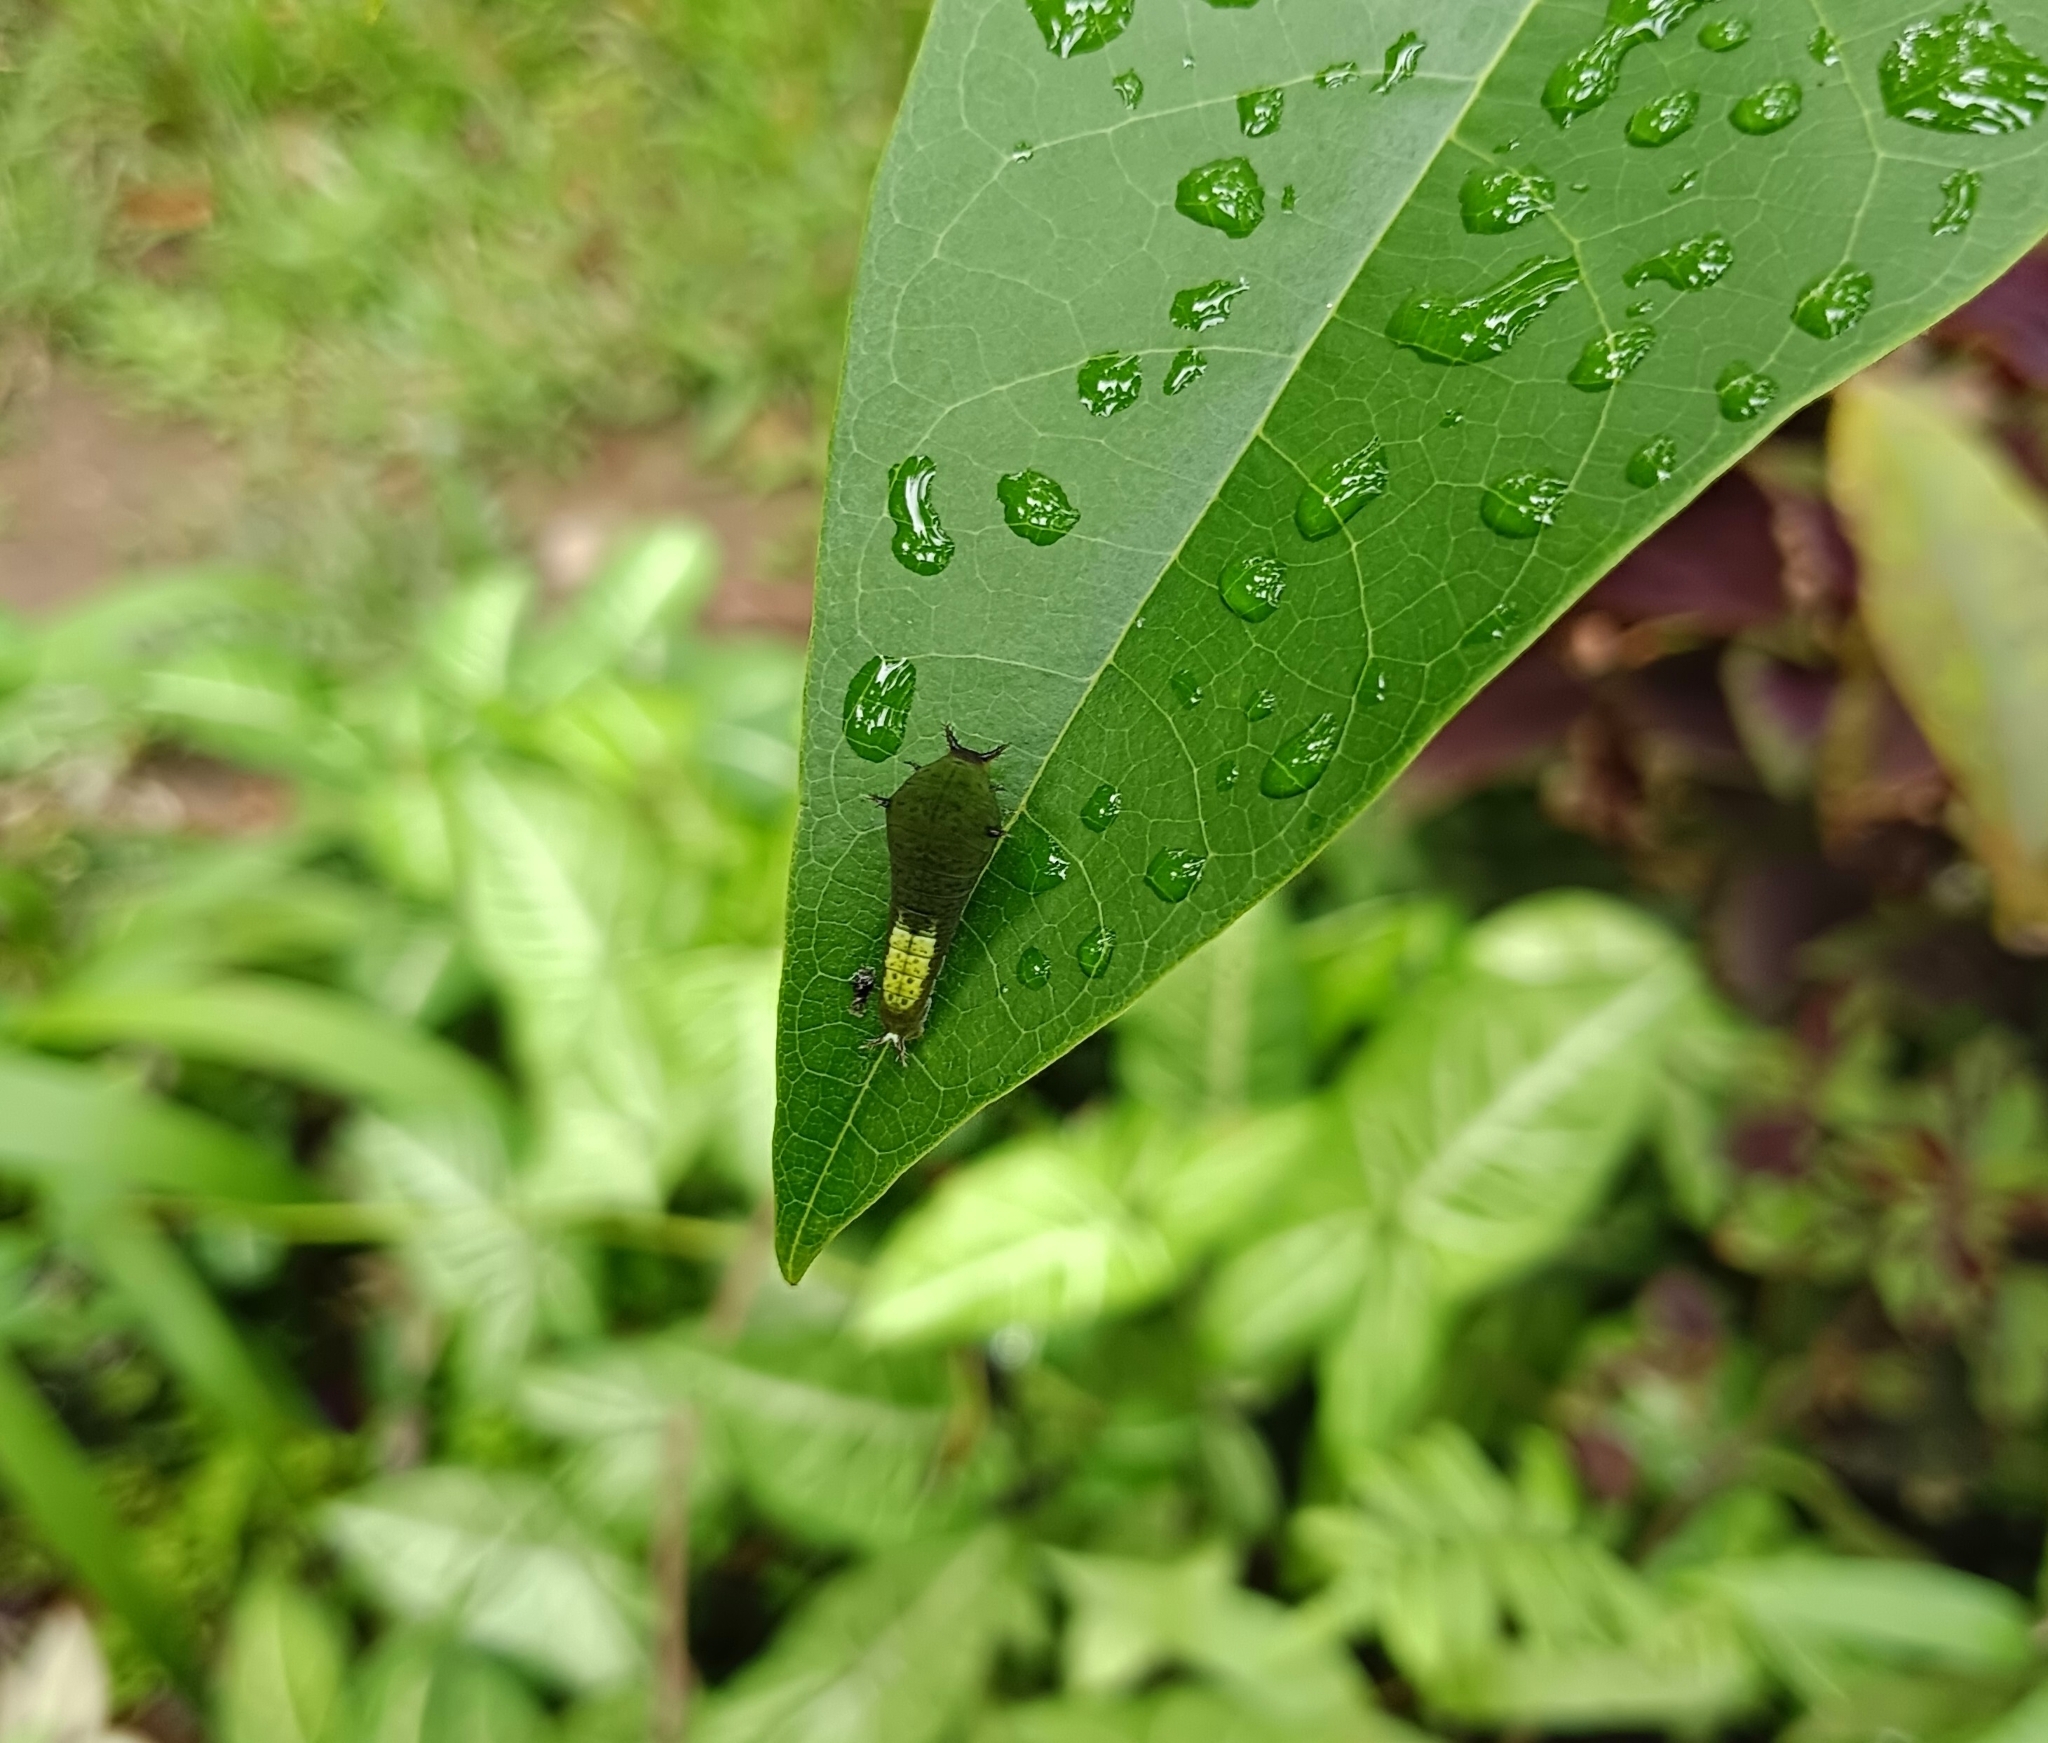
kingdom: Animalia
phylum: Arthropoda
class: Insecta
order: Lepidoptera
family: Papilionidae
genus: Graphium
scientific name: Graphium agamemnon
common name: Tailed jay
